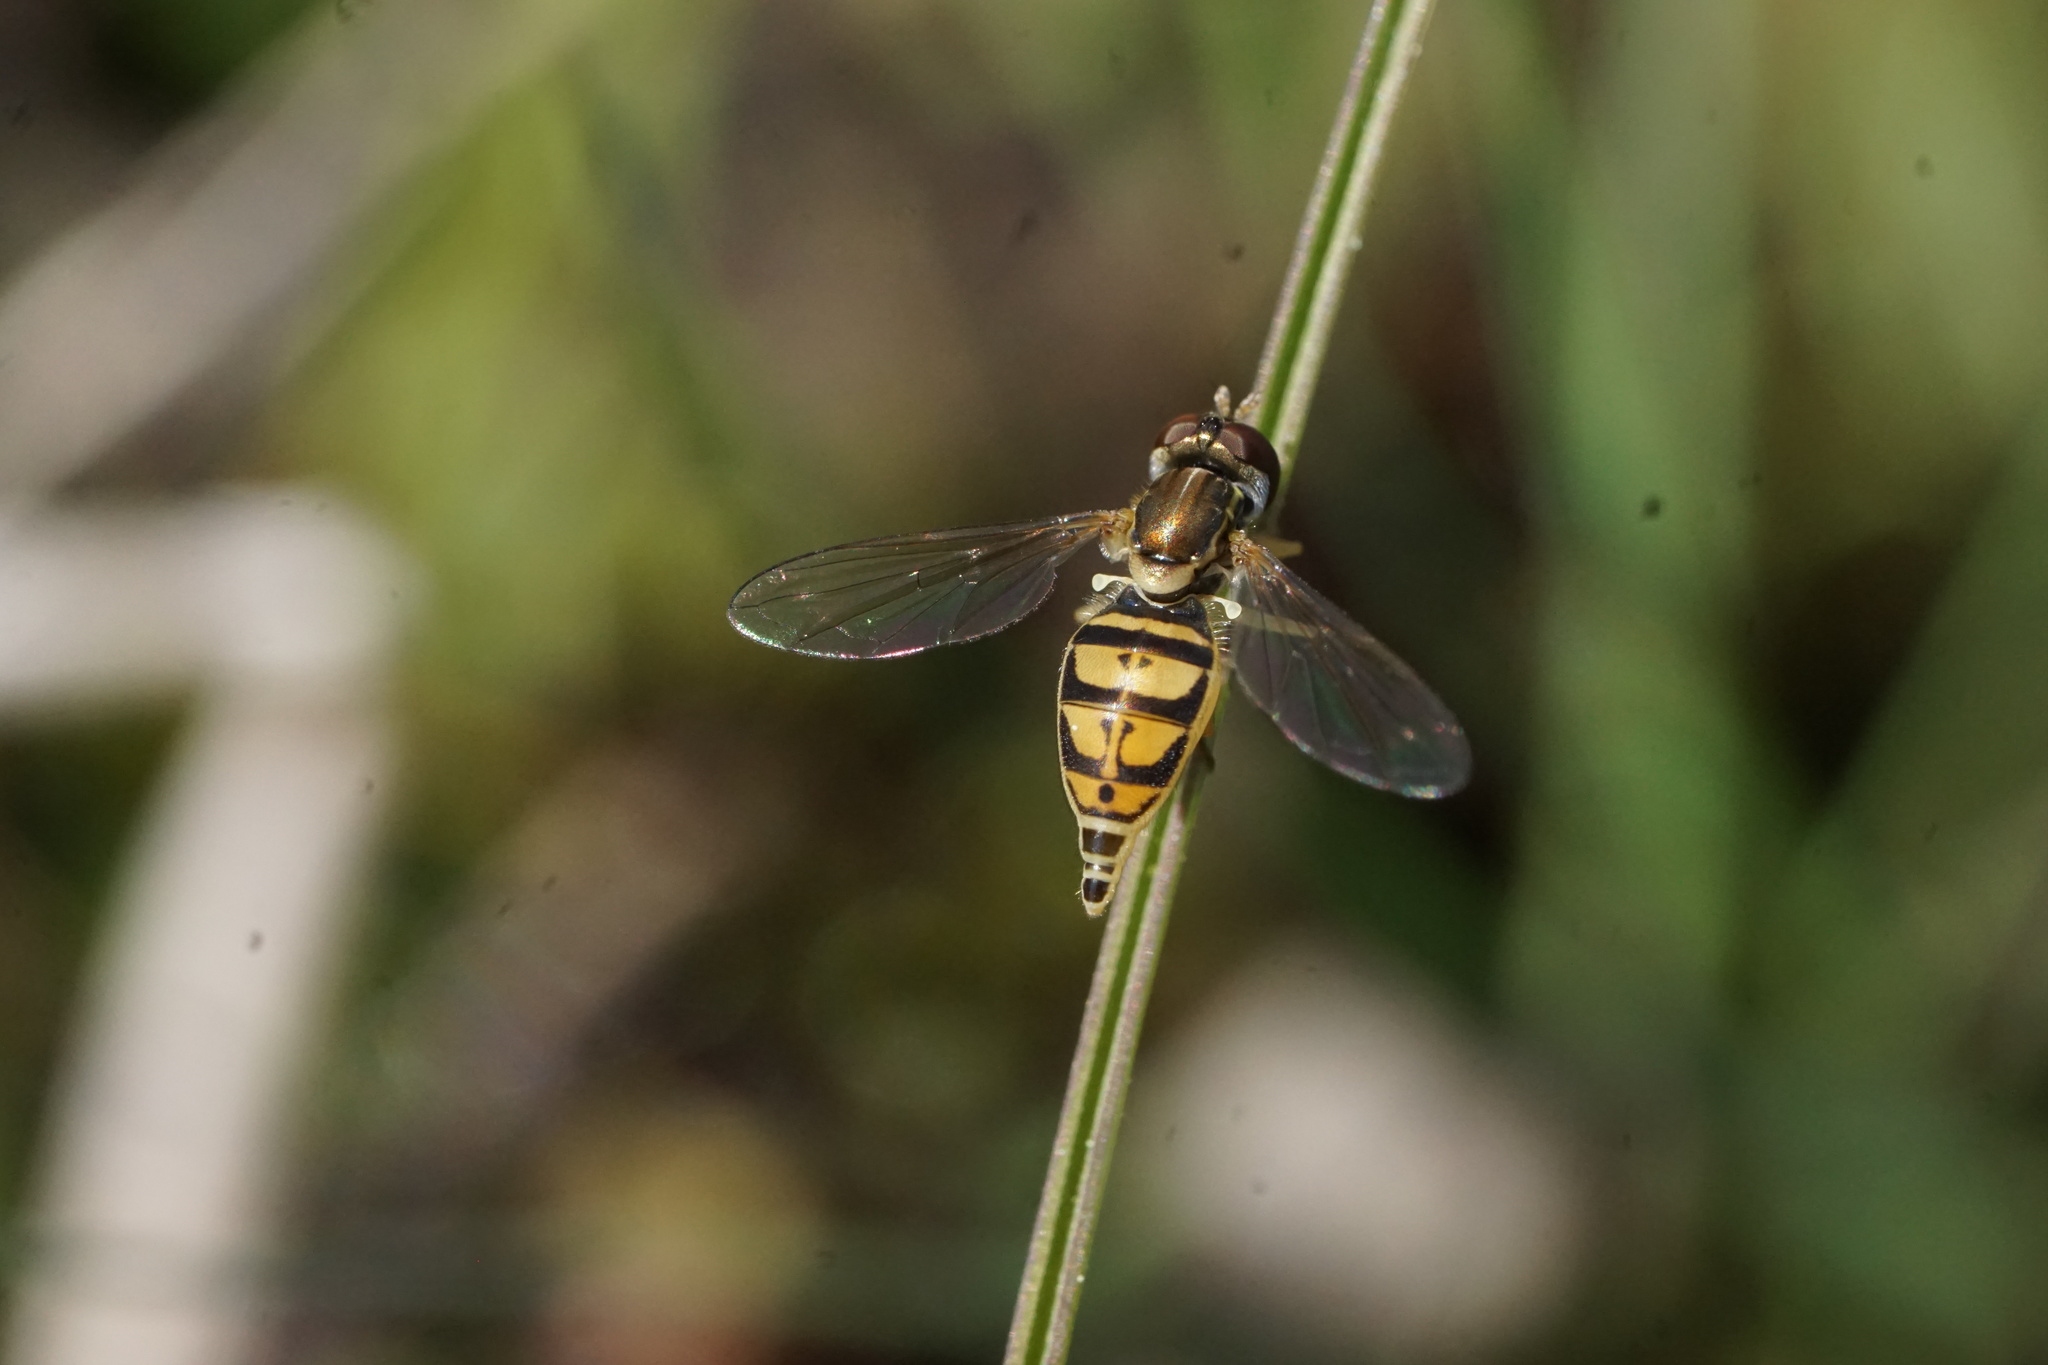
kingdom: Animalia
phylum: Arthropoda
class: Insecta
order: Diptera
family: Syrphidae
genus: Toxomerus
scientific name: Toxomerus marginatus
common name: Syrphid fly
